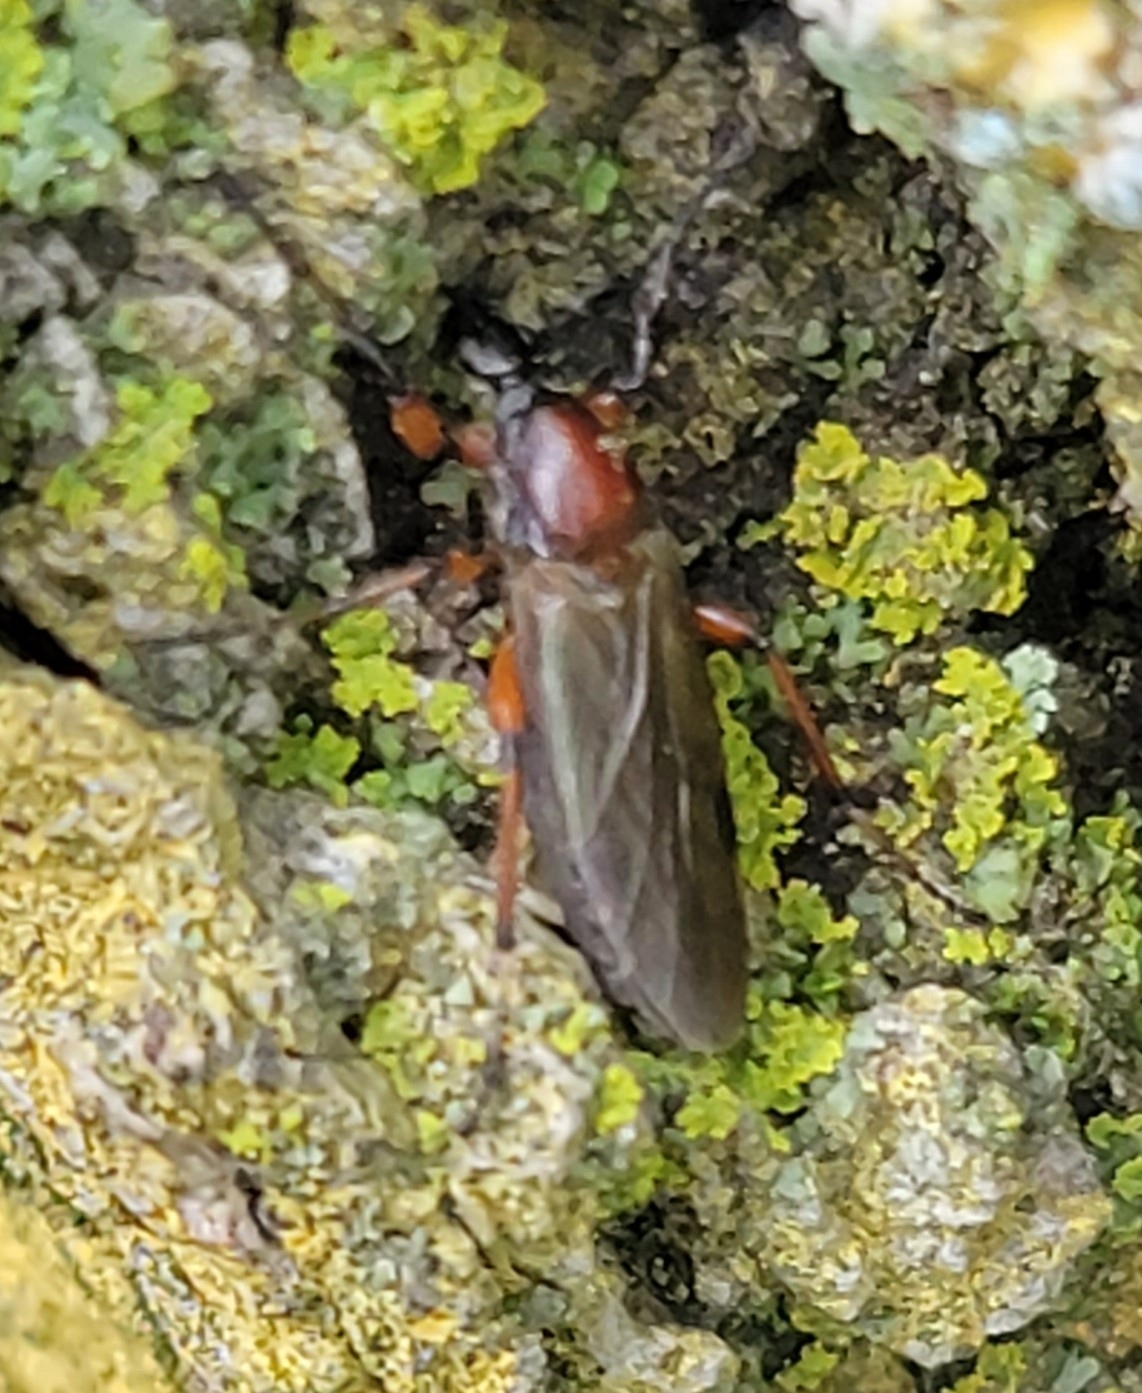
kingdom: Animalia
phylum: Arthropoda
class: Insecta
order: Diptera
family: Bibionidae
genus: Bibio
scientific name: Bibio articulatus
